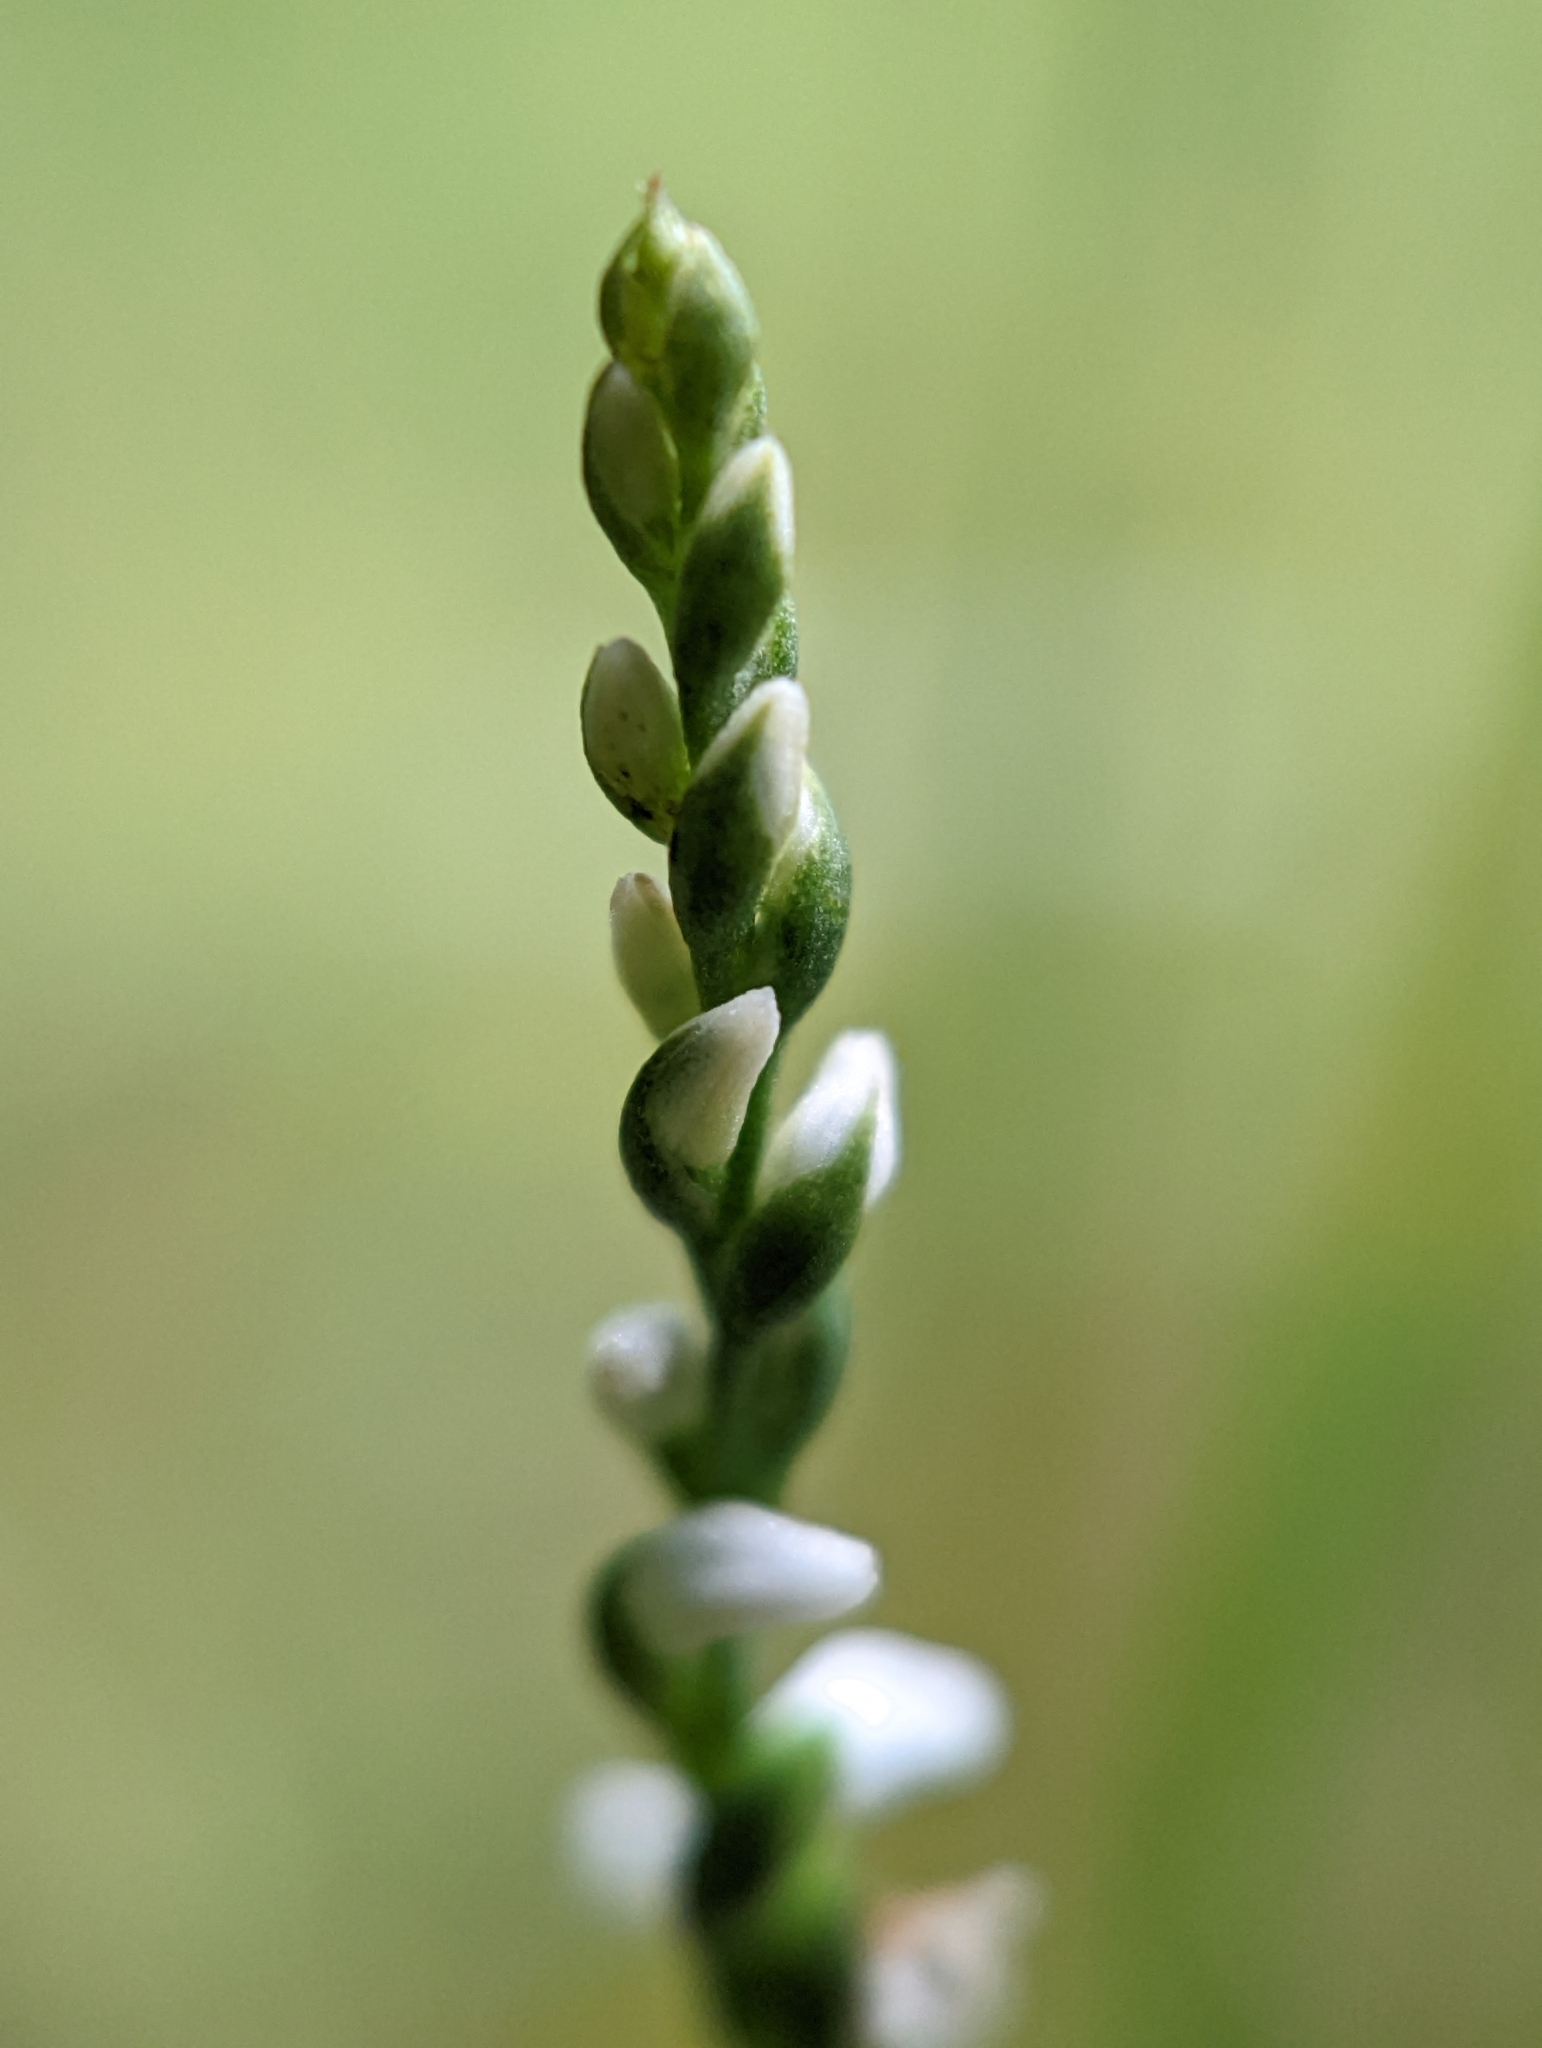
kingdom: Plantae
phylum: Tracheophyta
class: Liliopsida
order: Asparagales
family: Orchidaceae
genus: Spiranthes
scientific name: Spiranthes tuberosa
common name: Little ladies'-tresses
